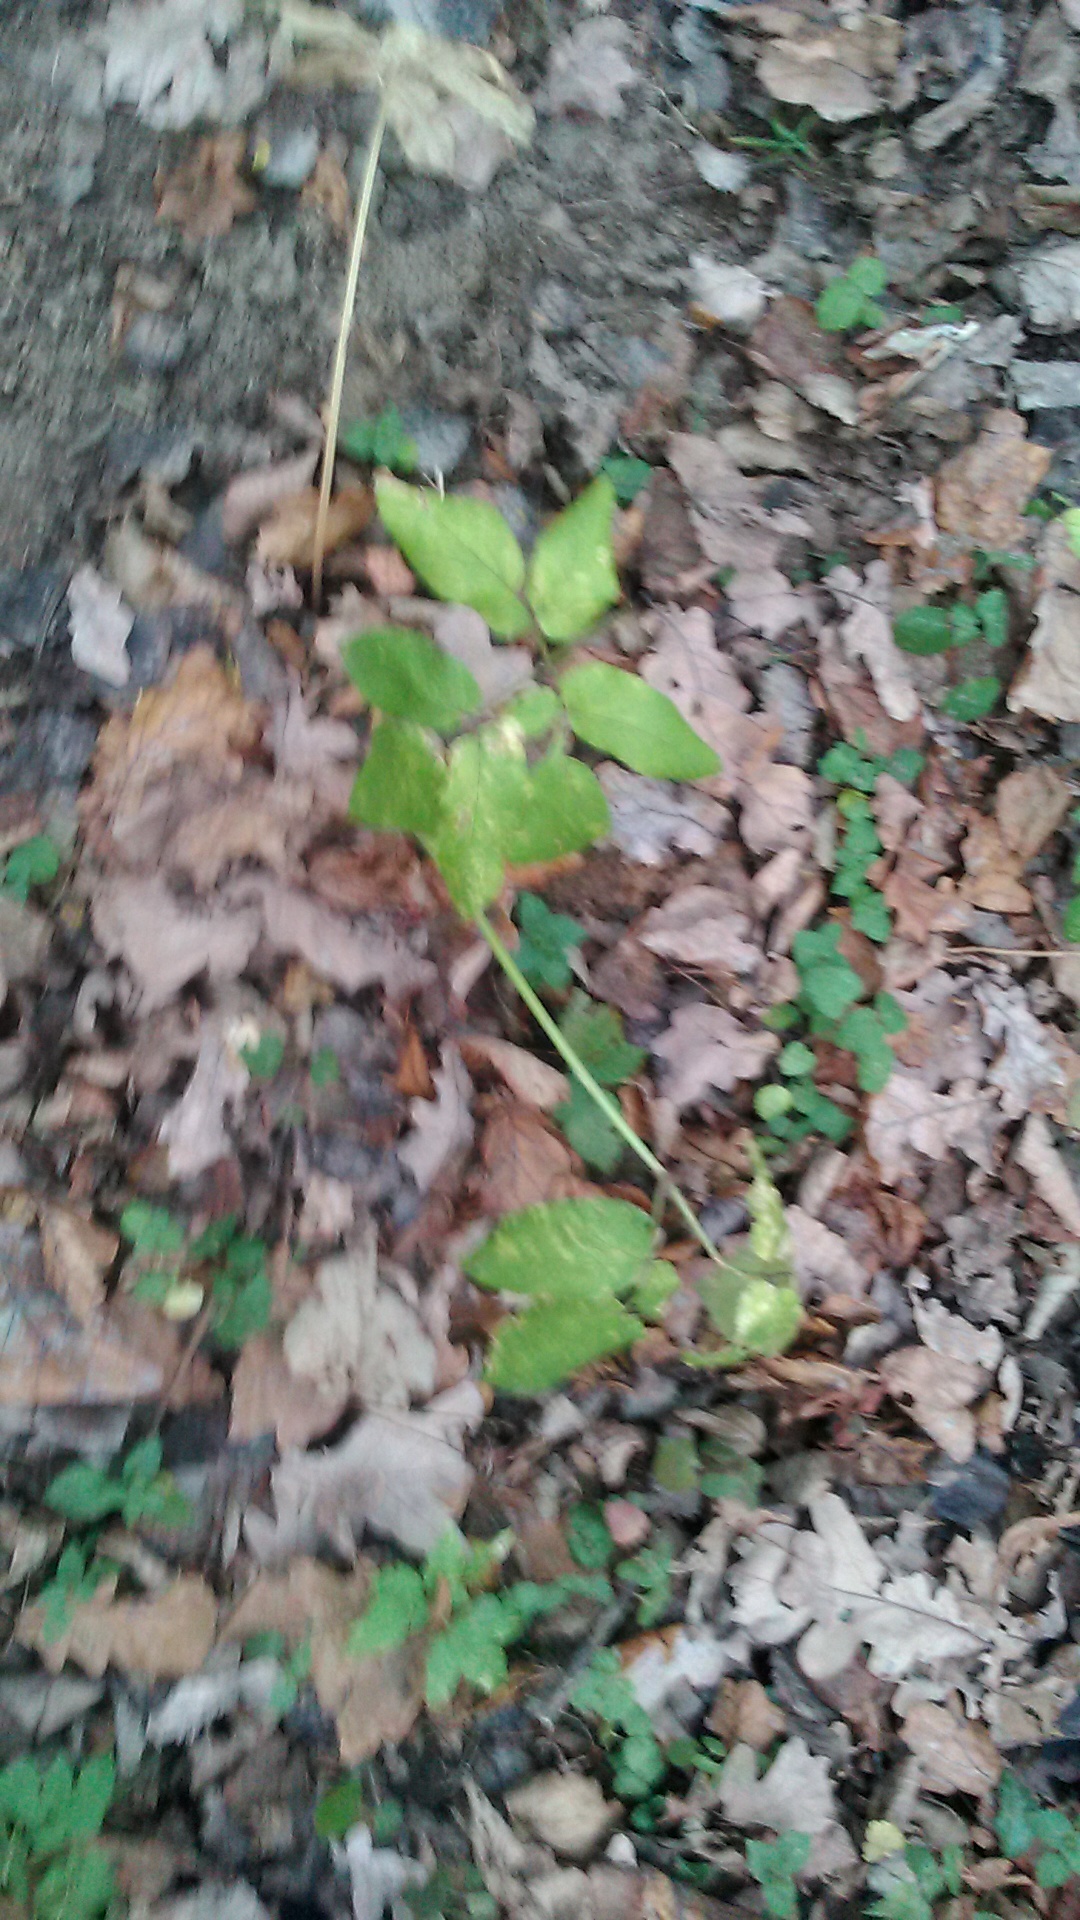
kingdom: Plantae
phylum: Tracheophyta
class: Magnoliopsida
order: Apiales
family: Apiaceae
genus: Aegopodium
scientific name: Aegopodium podagraria
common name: Ground-elder
